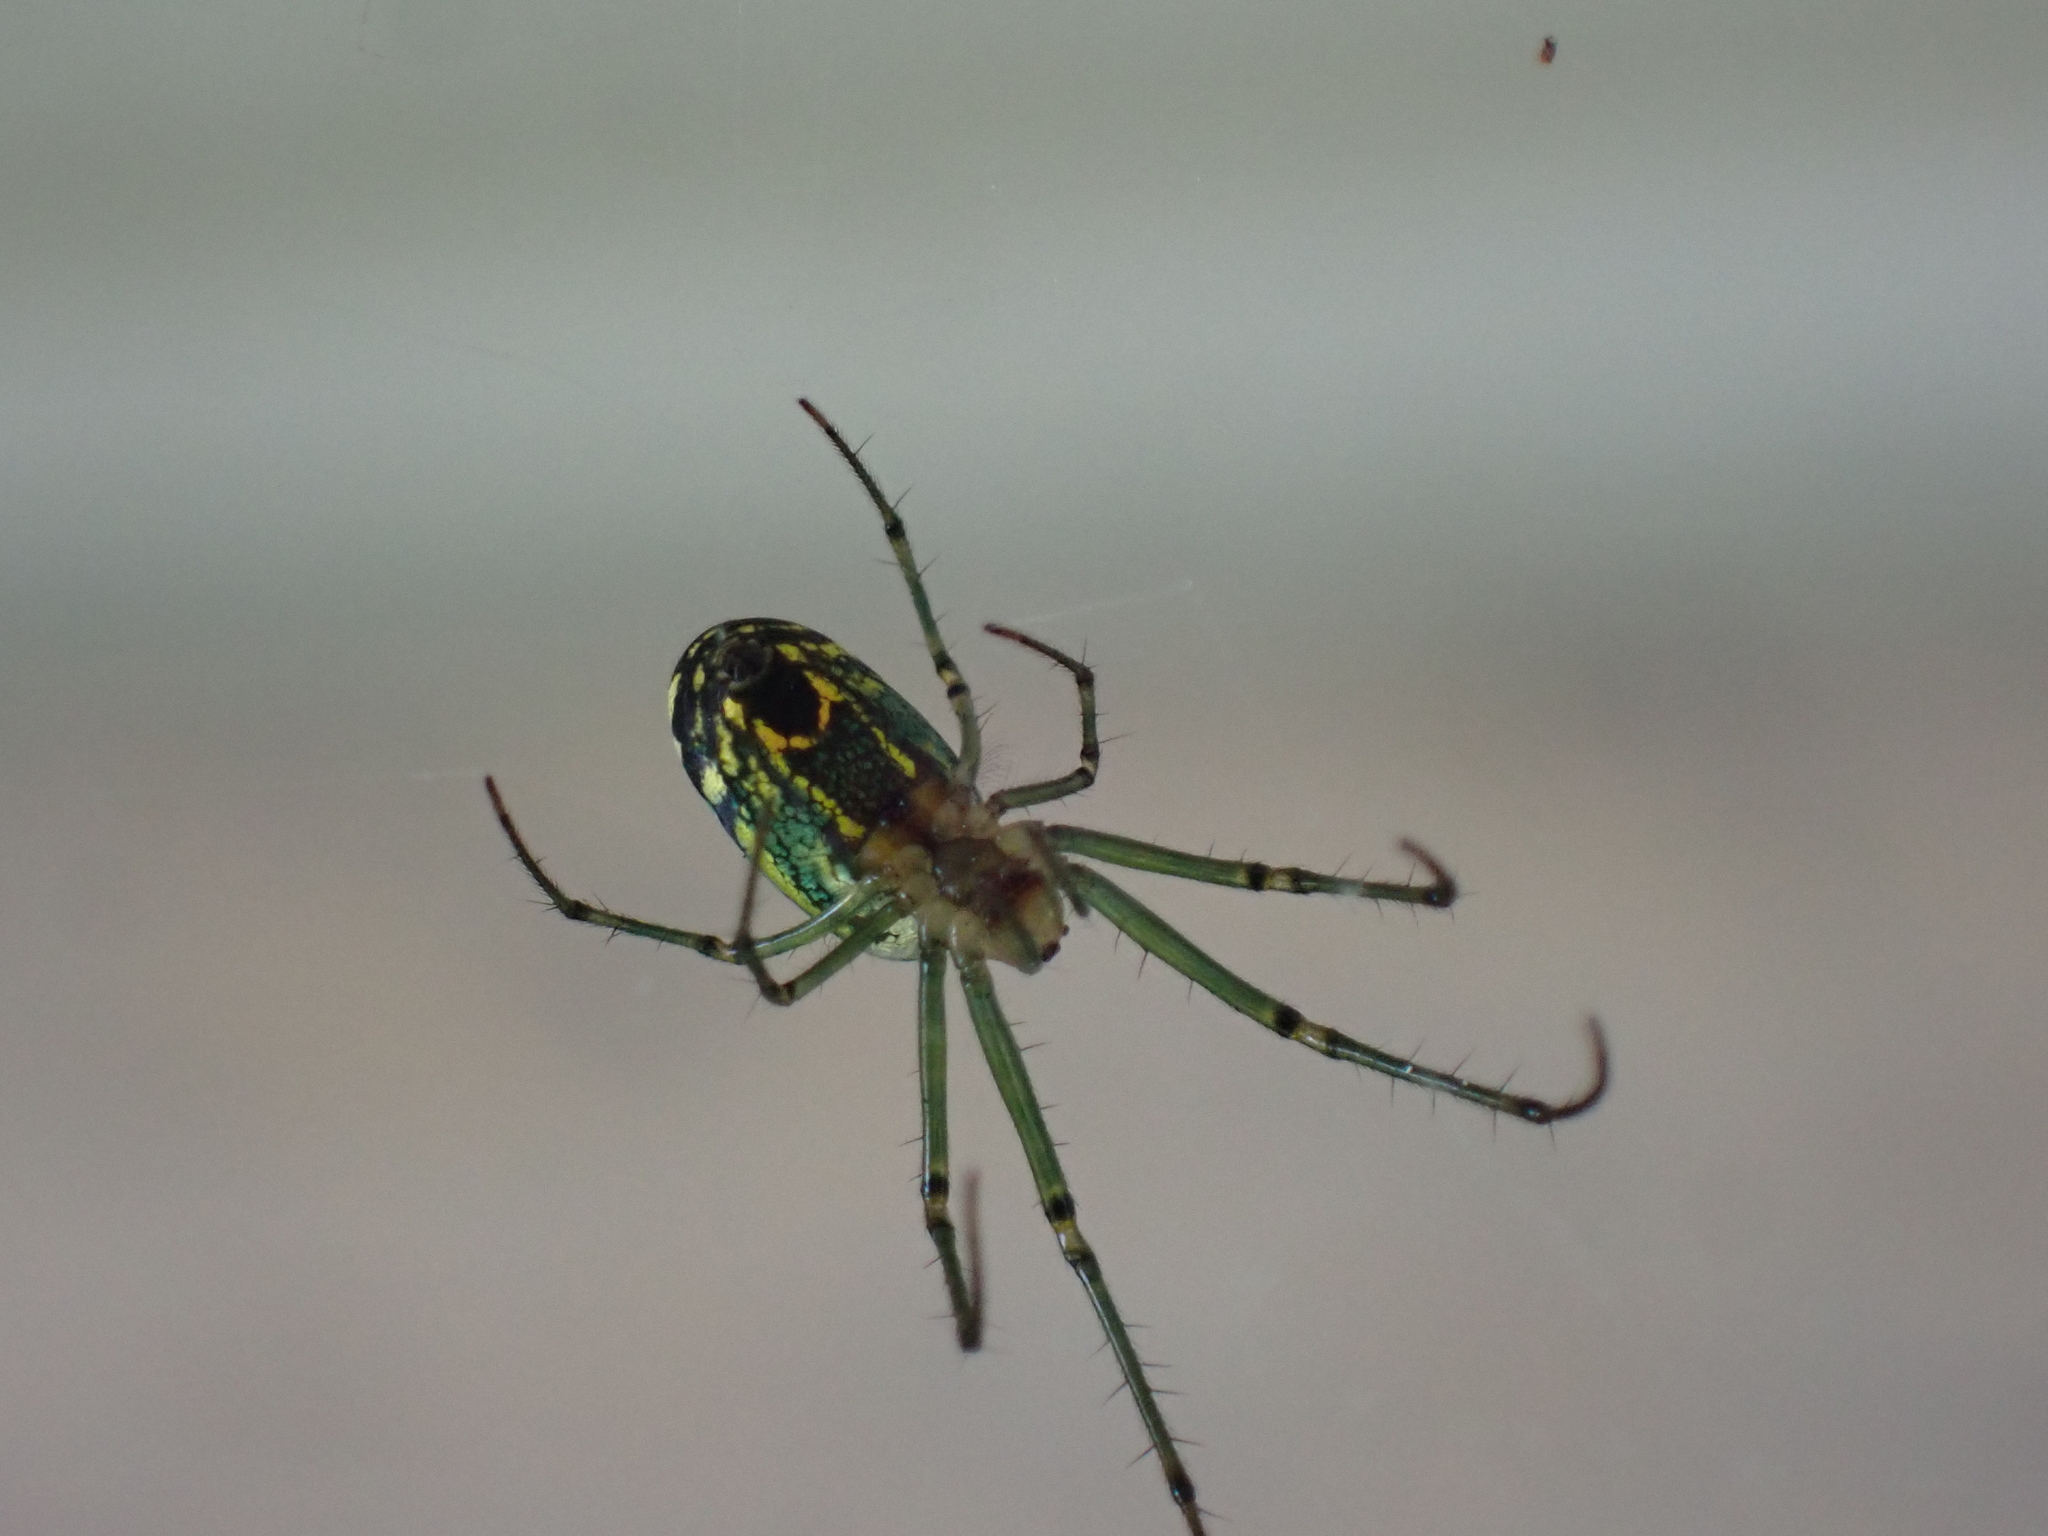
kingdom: Animalia
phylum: Arthropoda
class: Arachnida
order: Araneae
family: Tetragnathidae
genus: Leucauge
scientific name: Leucauge venusta
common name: Longjawed orb weavers
